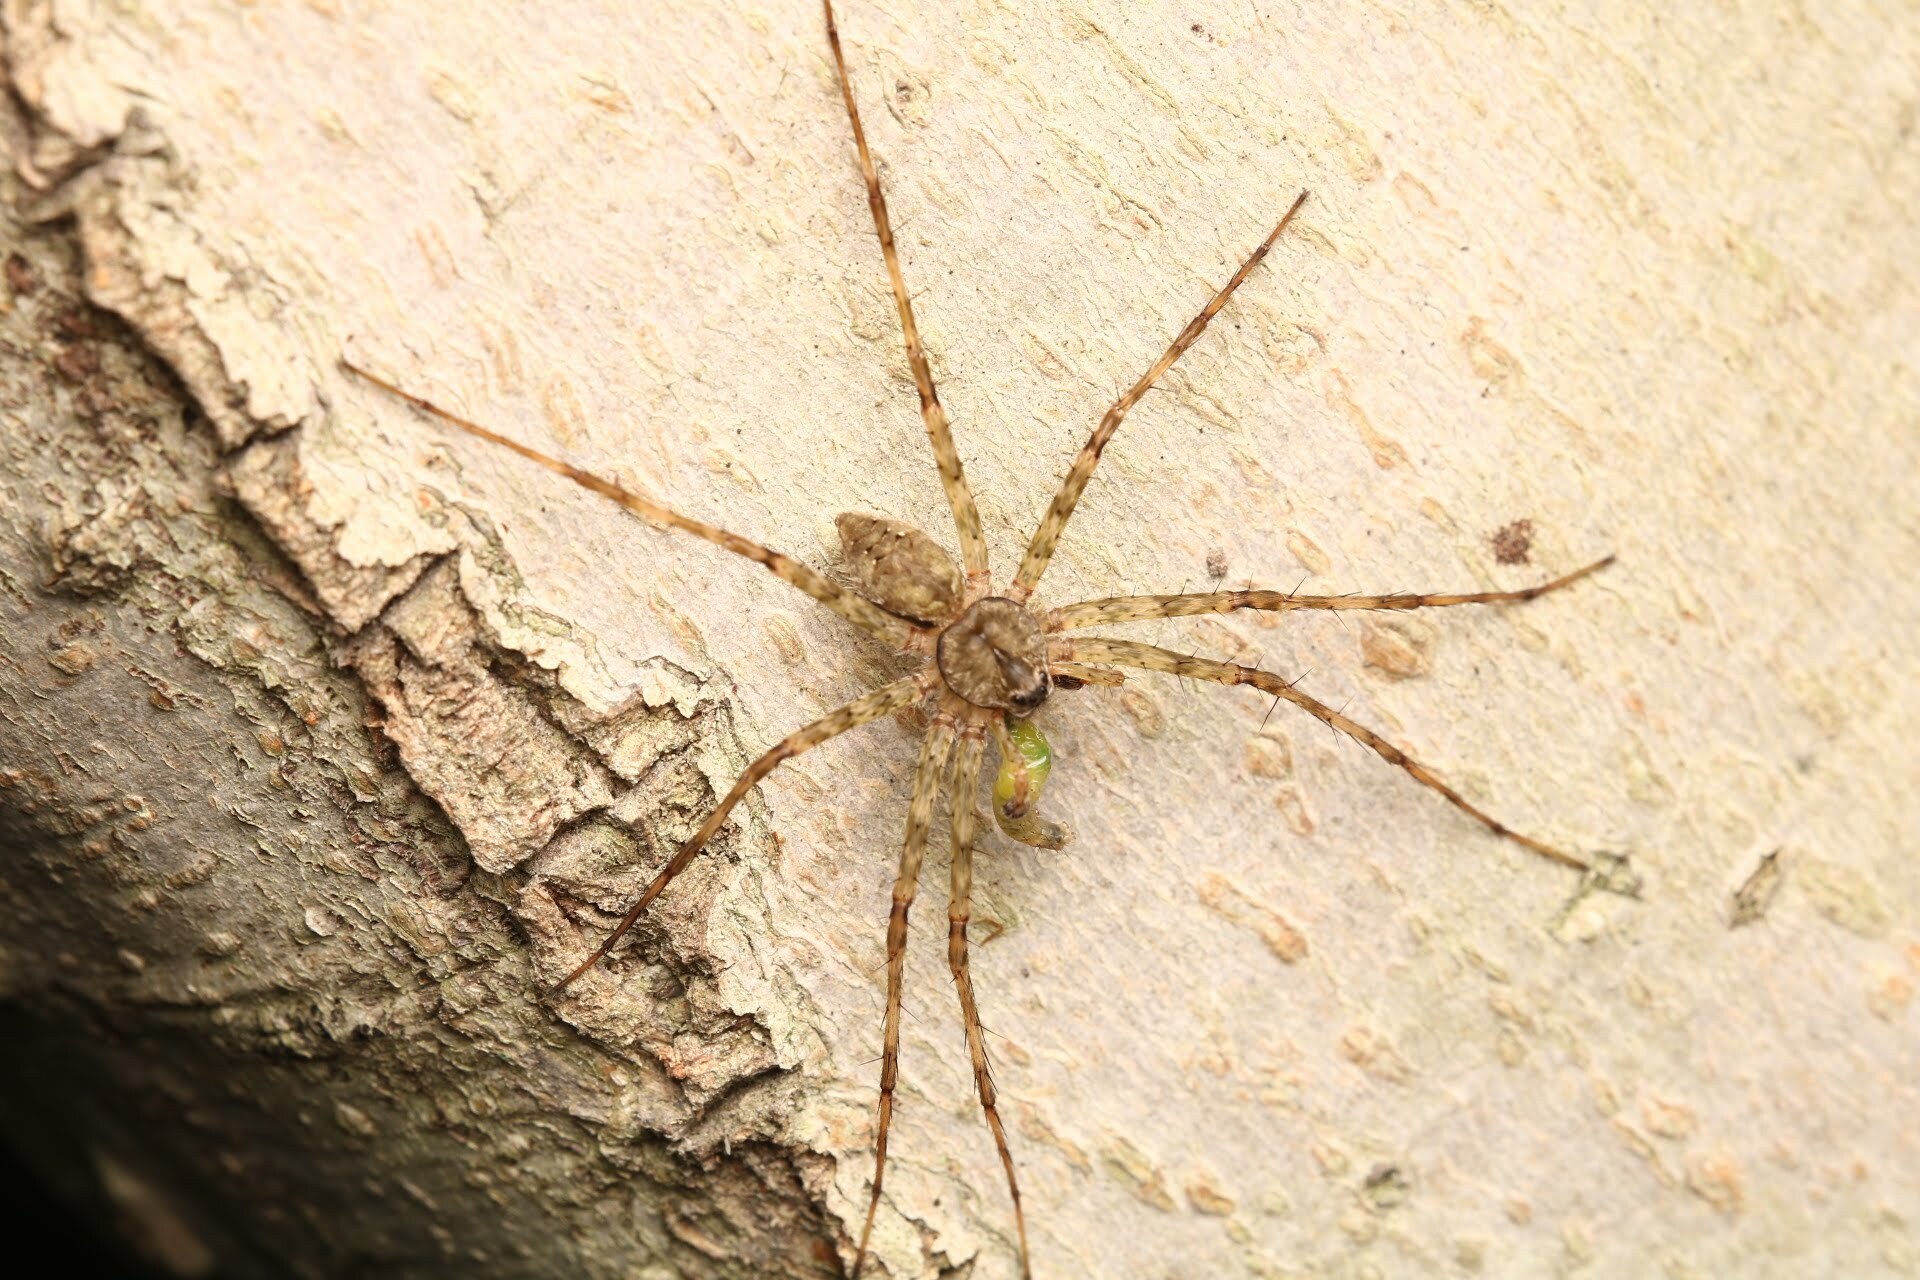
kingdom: Animalia
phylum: Arthropoda
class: Arachnida
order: Araneae
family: Pisauridae
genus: Dolomedes
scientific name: Dolomedes albineus
